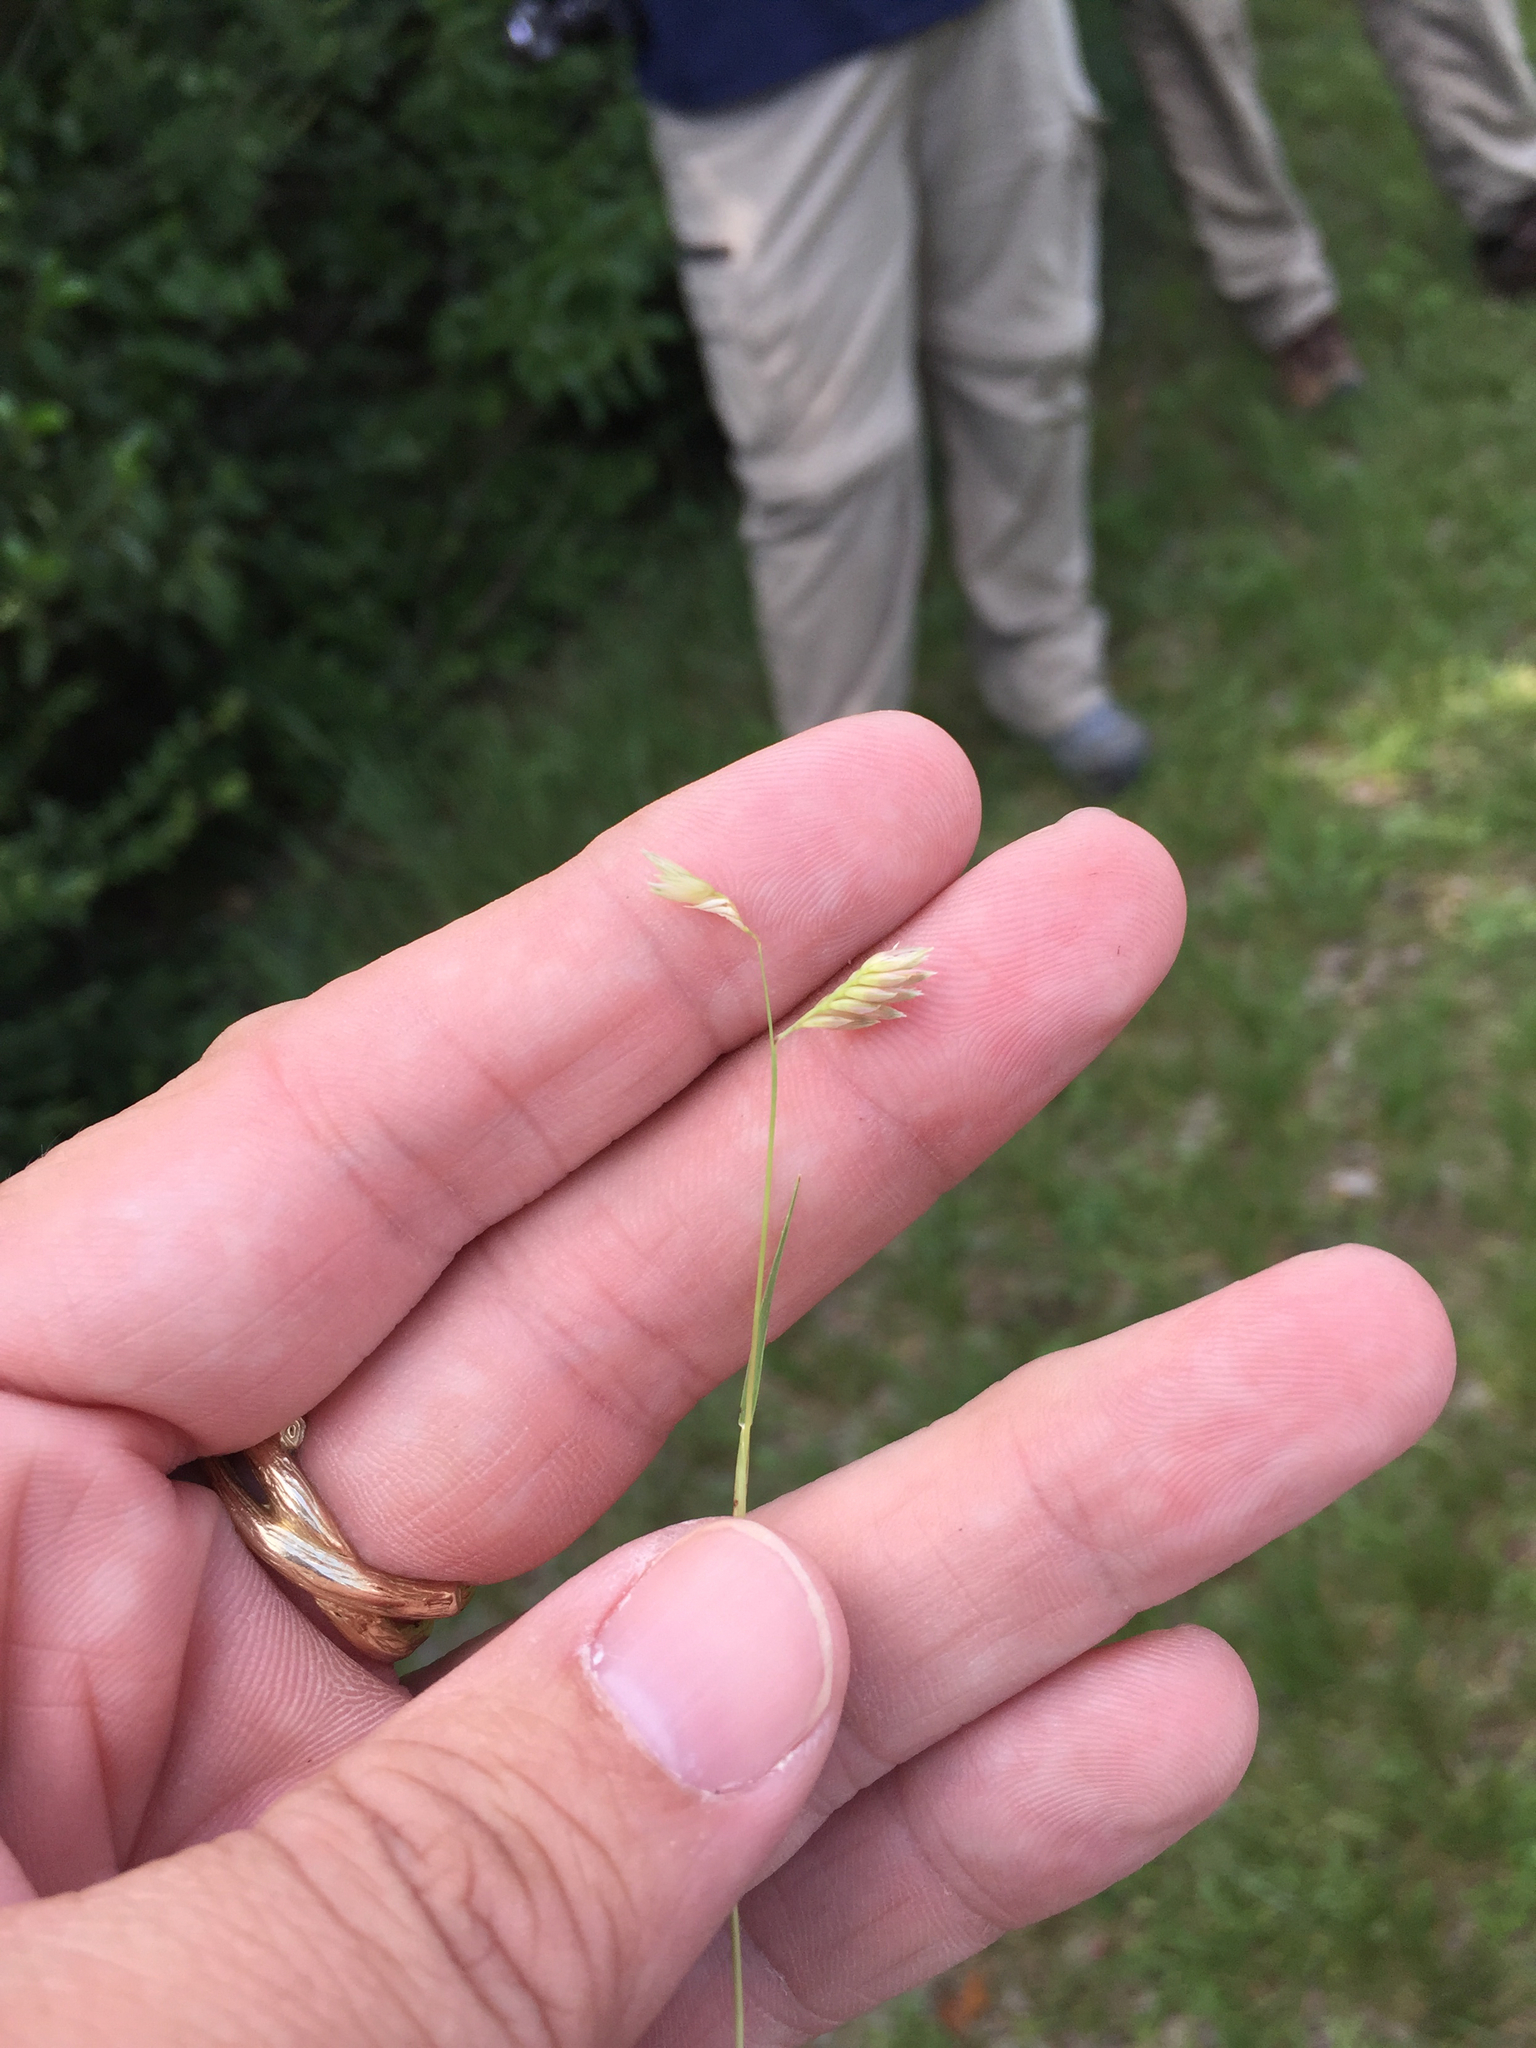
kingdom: Plantae
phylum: Tracheophyta
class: Liliopsida
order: Poales
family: Poaceae
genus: Bouteloua
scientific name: Bouteloua dactyloides
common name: Buffalo grass
